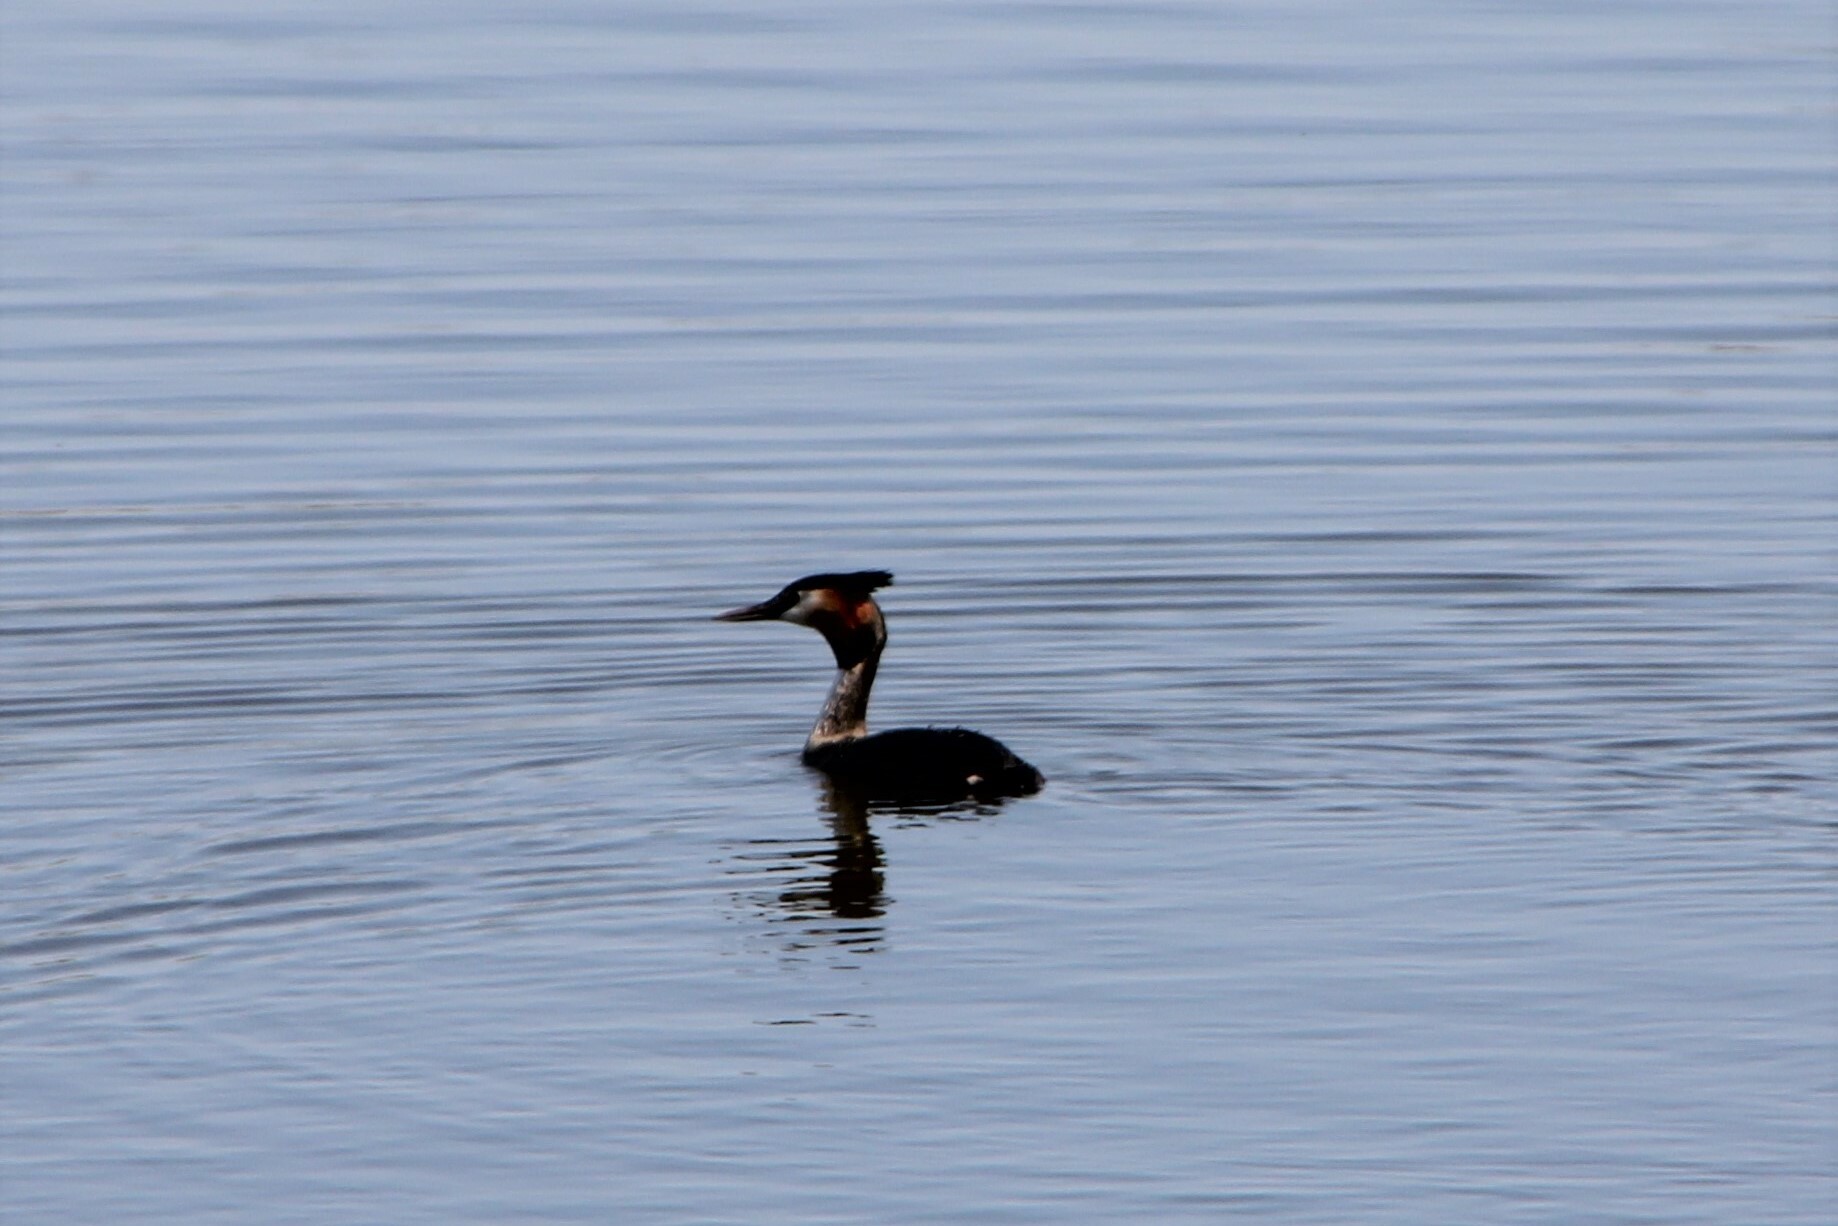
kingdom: Animalia
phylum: Chordata
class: Aves
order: Podicipediformes
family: Podicipedidae
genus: Podiceps
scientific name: Podiceps cristatus
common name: Great crested grebe
